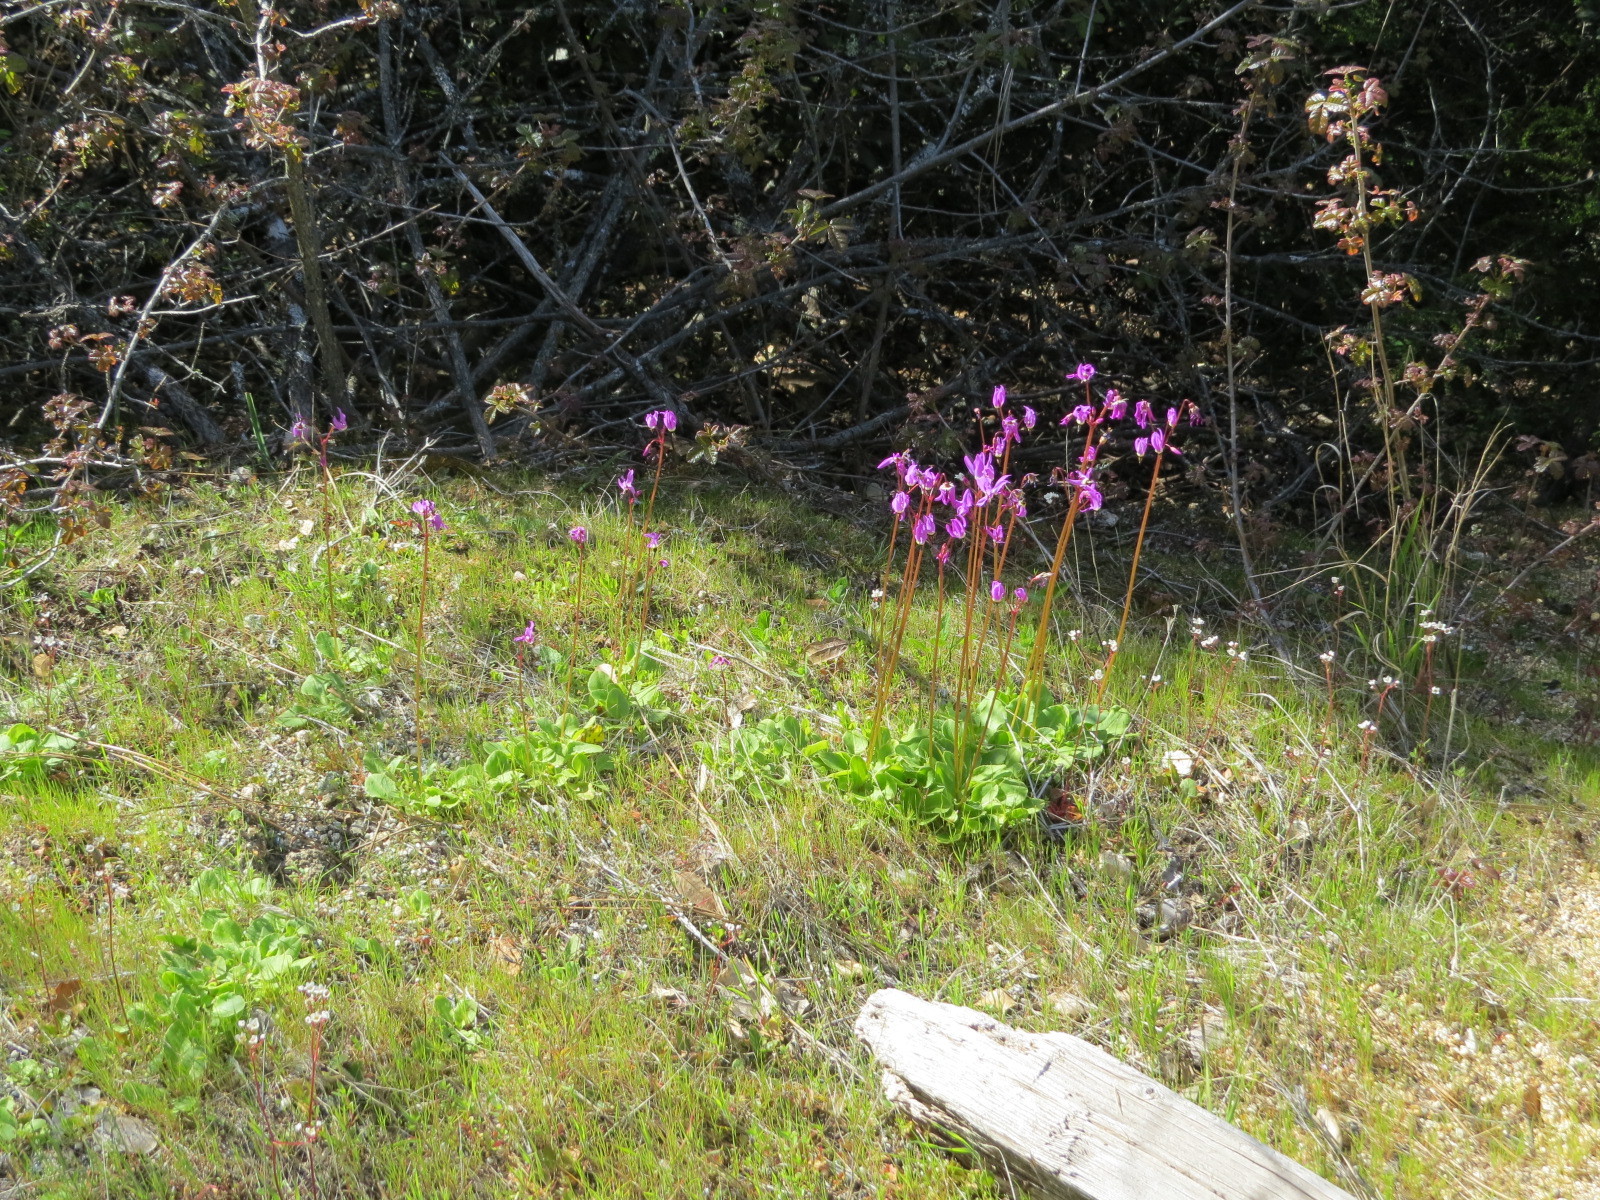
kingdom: Plantae
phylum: Tracheophyta
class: Magnoliopsida
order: Ericales
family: Primulaceae
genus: Dodecatheon
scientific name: Dodecatheon hendersonii
